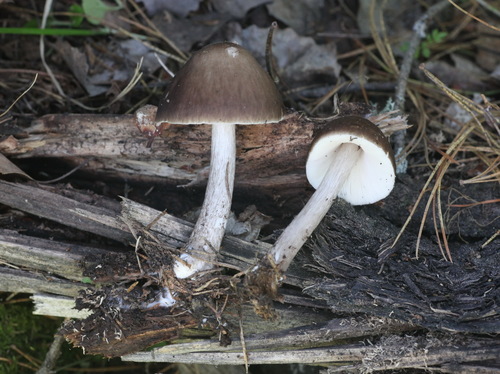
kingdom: Fungi
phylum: Basidiomycota
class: Agaricomycetes
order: Agaricales
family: Pluteaceae
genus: Pluteus
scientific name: Pluteus cervinus
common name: Deer shield
